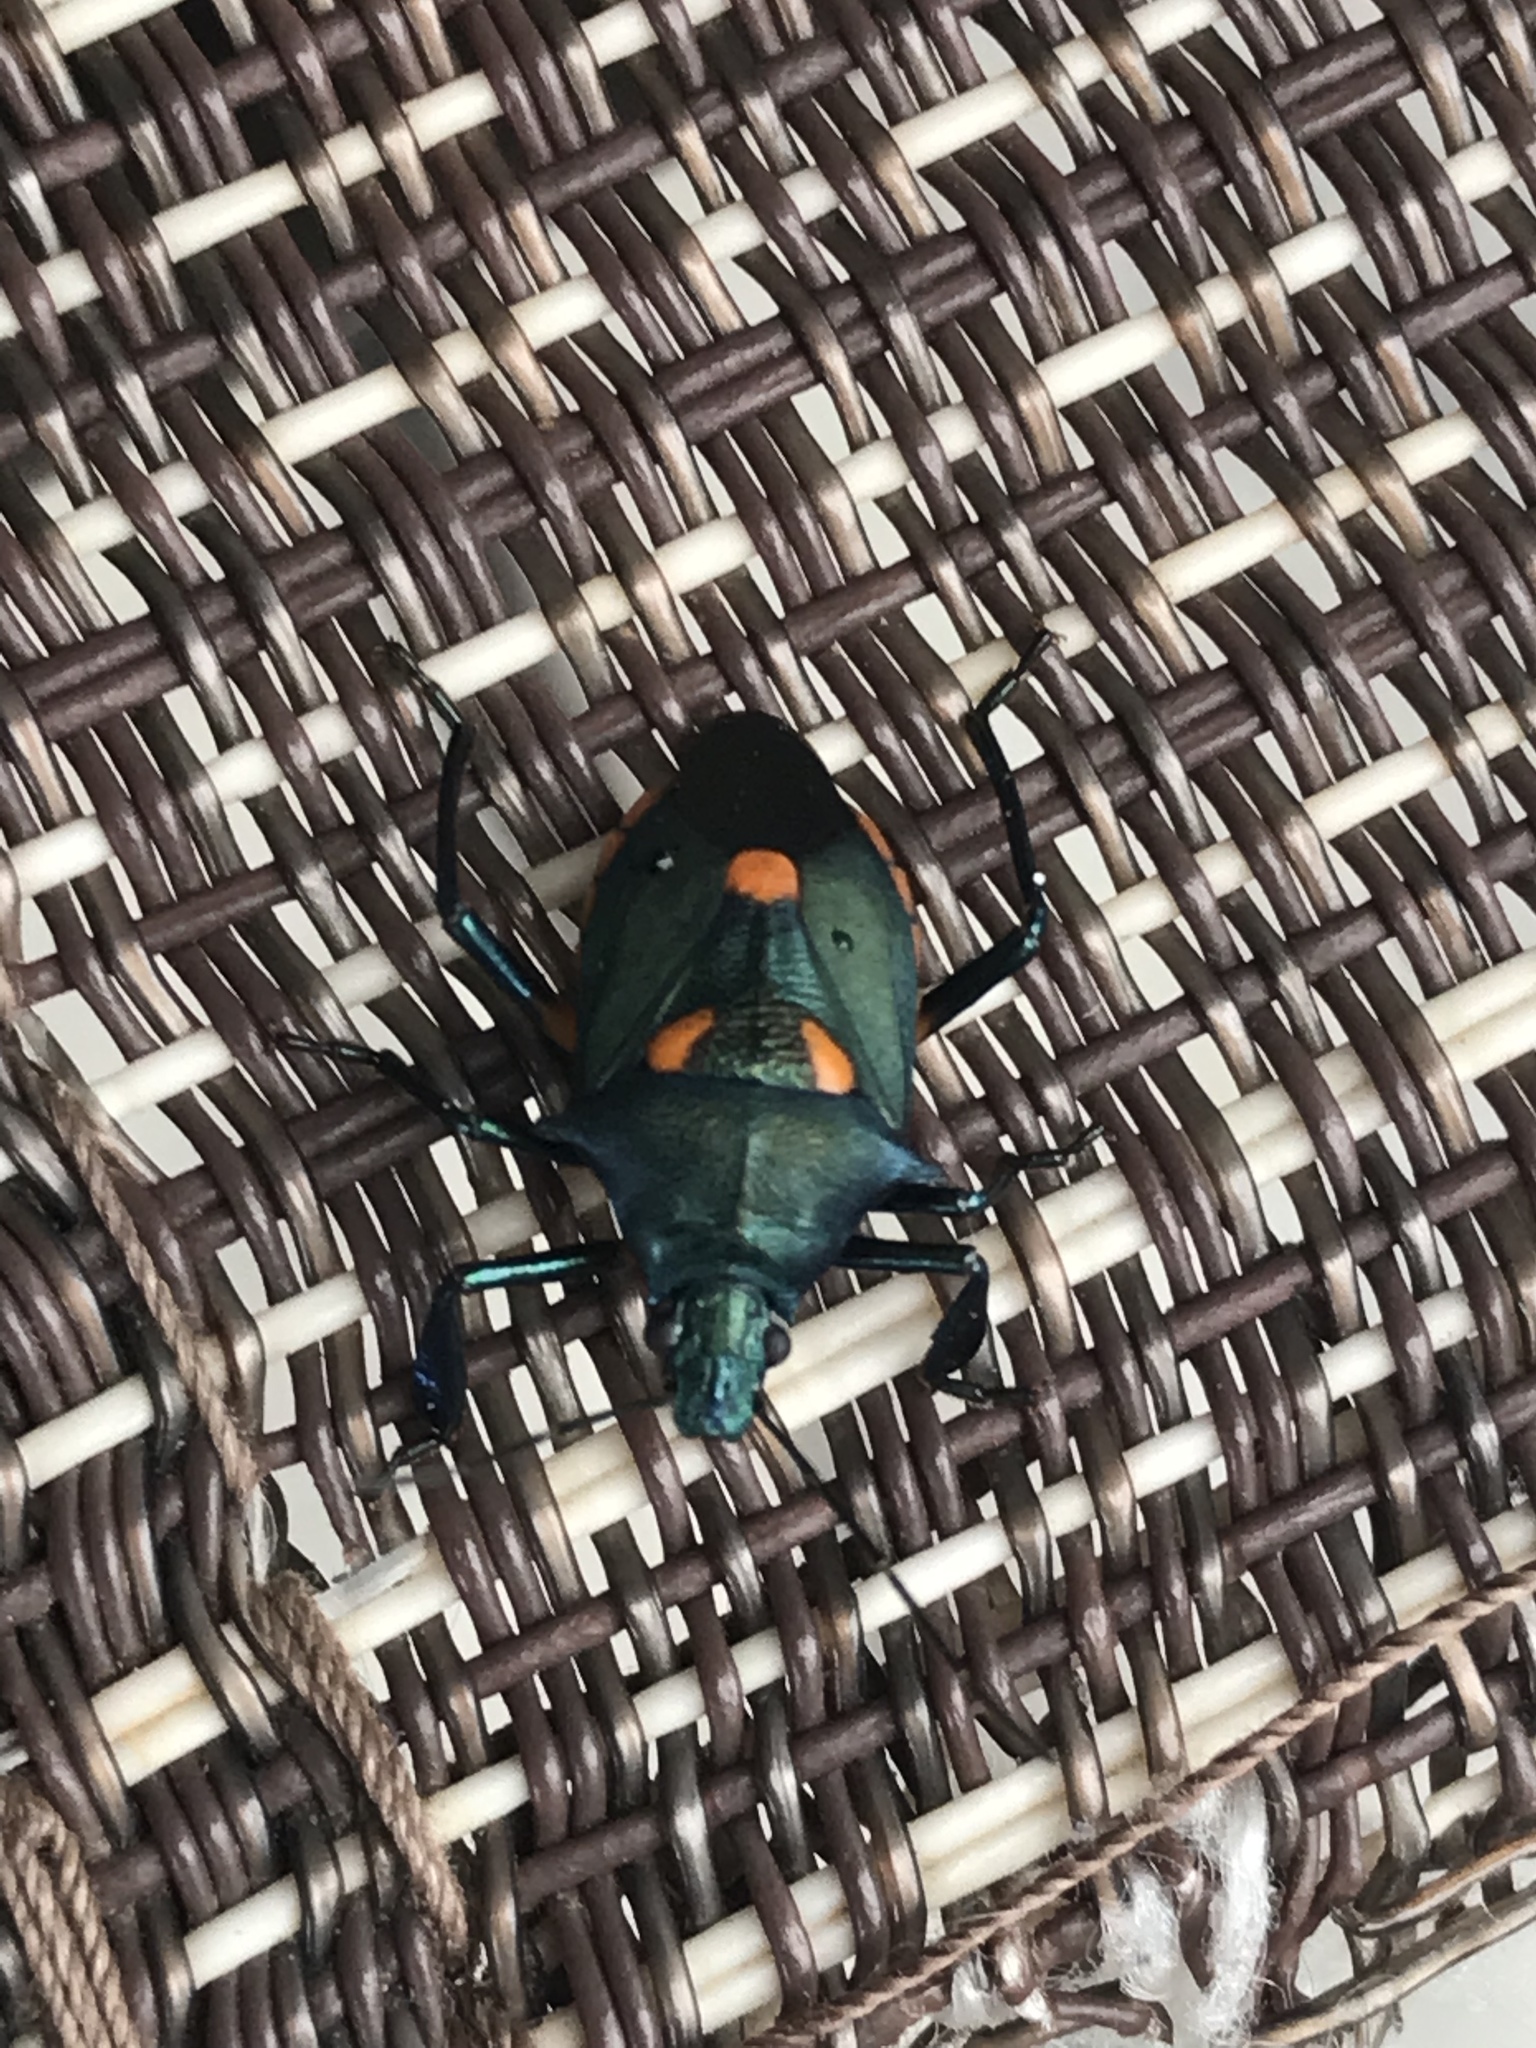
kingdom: Animalia
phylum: Arthropoda
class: Insecta
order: Hemiptera
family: Pentatomidae
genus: Euthyrhynchus
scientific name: Euthyrhynchus floridanus
